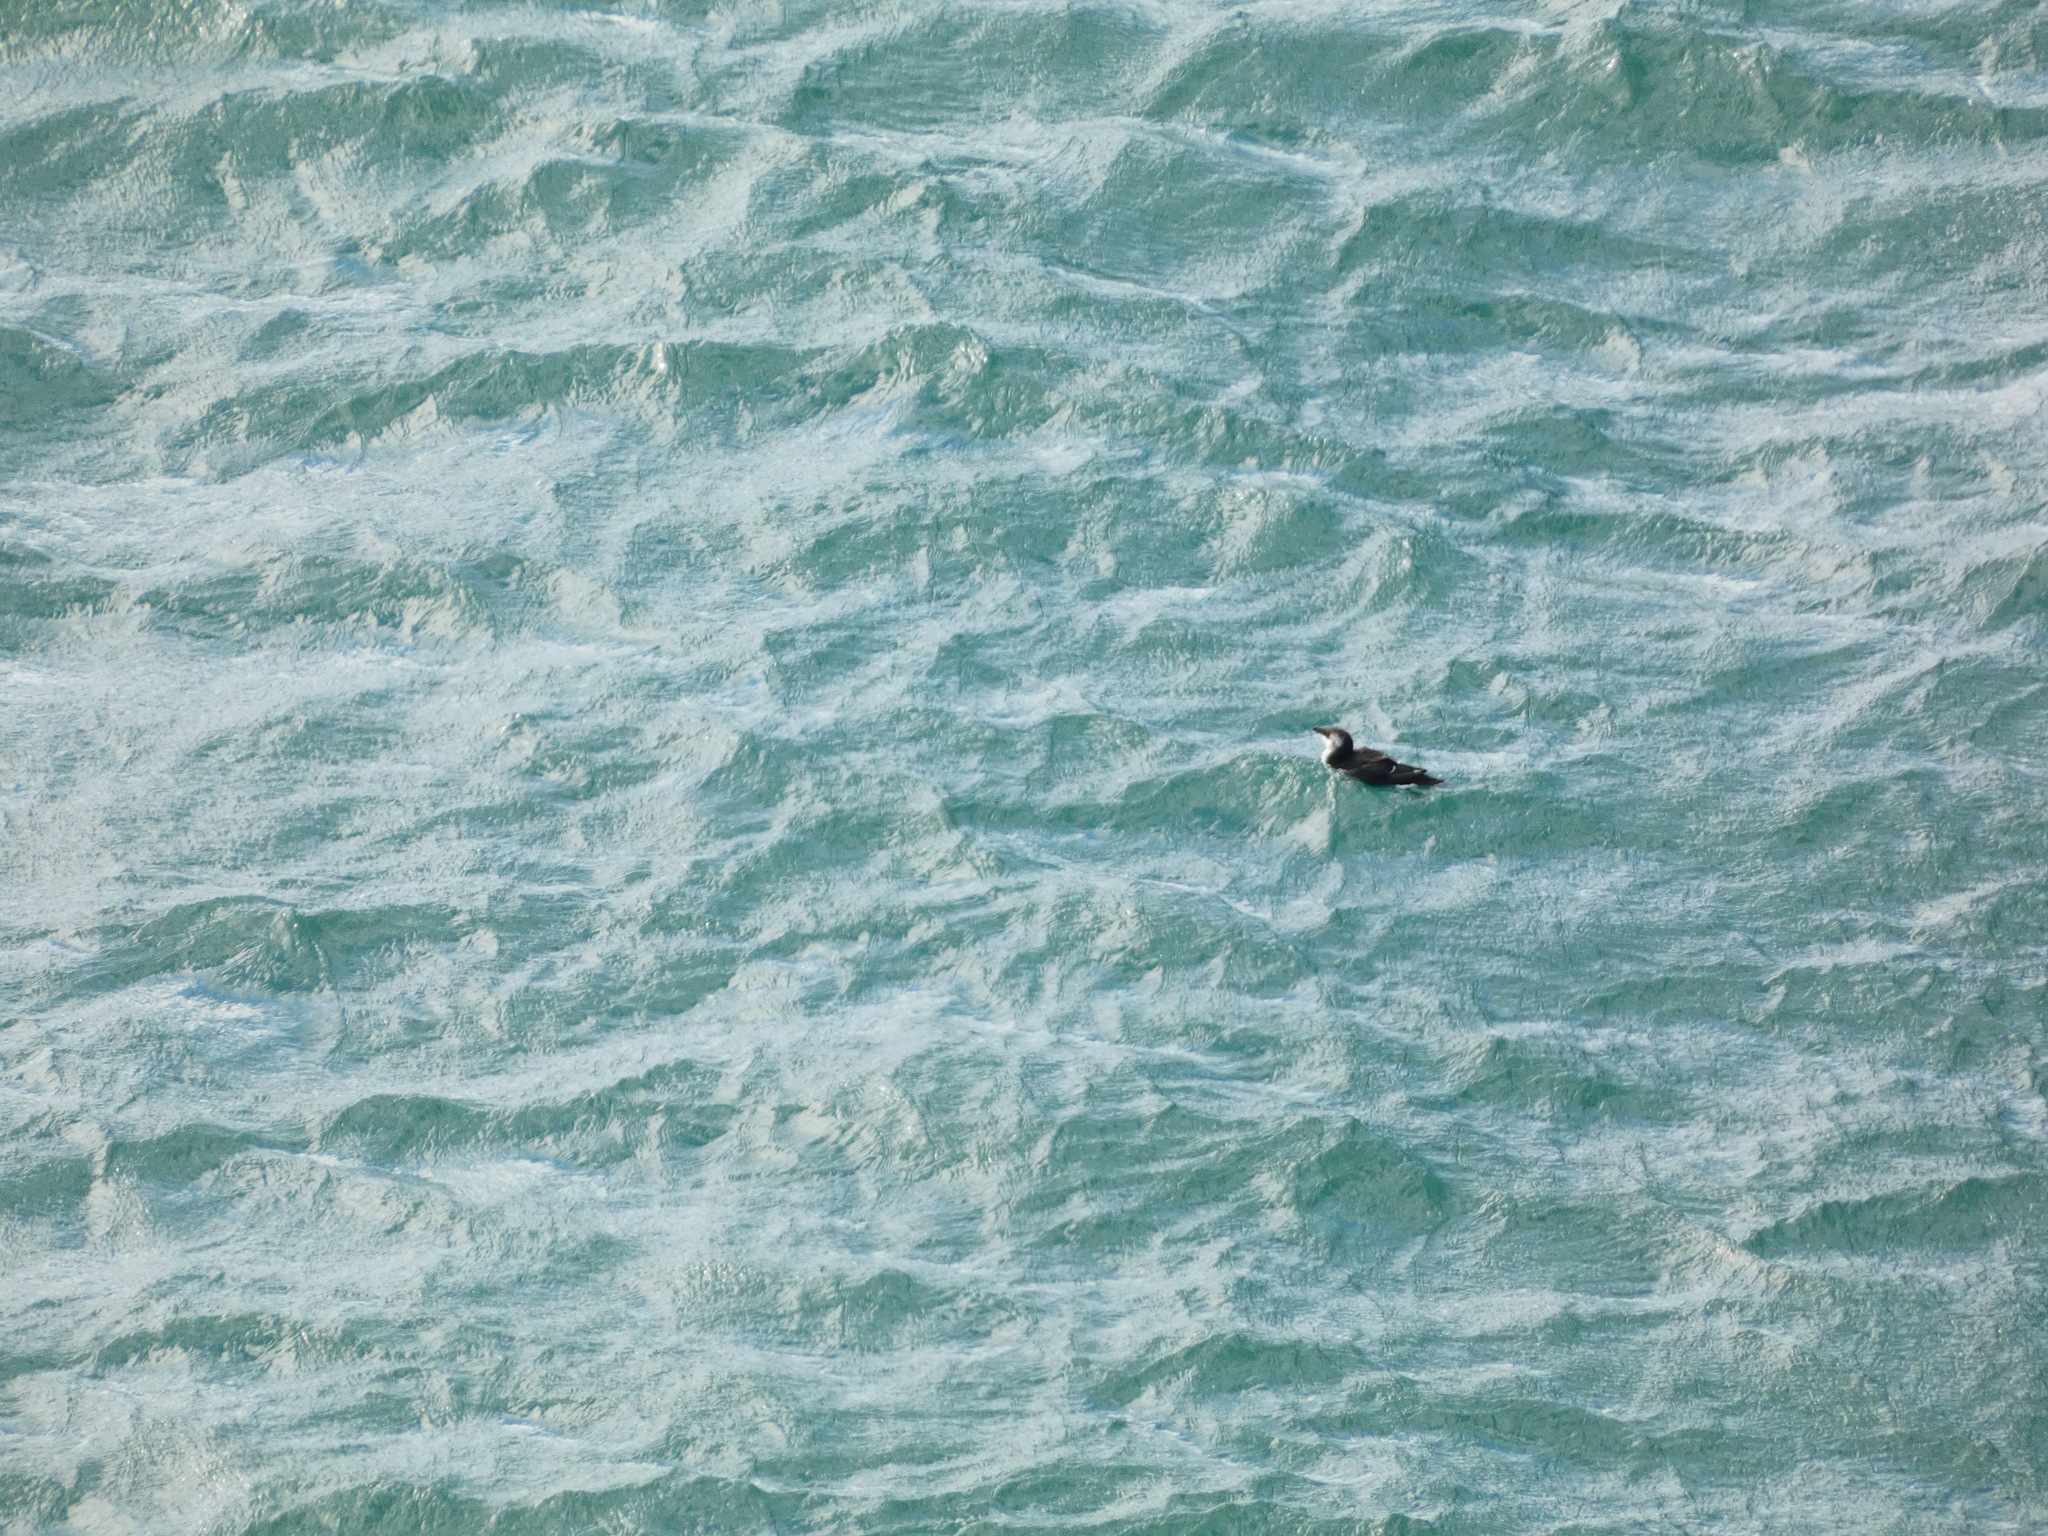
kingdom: Animalia
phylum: Chordata
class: Aves
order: Charadriiformes
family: Alcidae
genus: Alca
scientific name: Alca torda
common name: Razorbill
